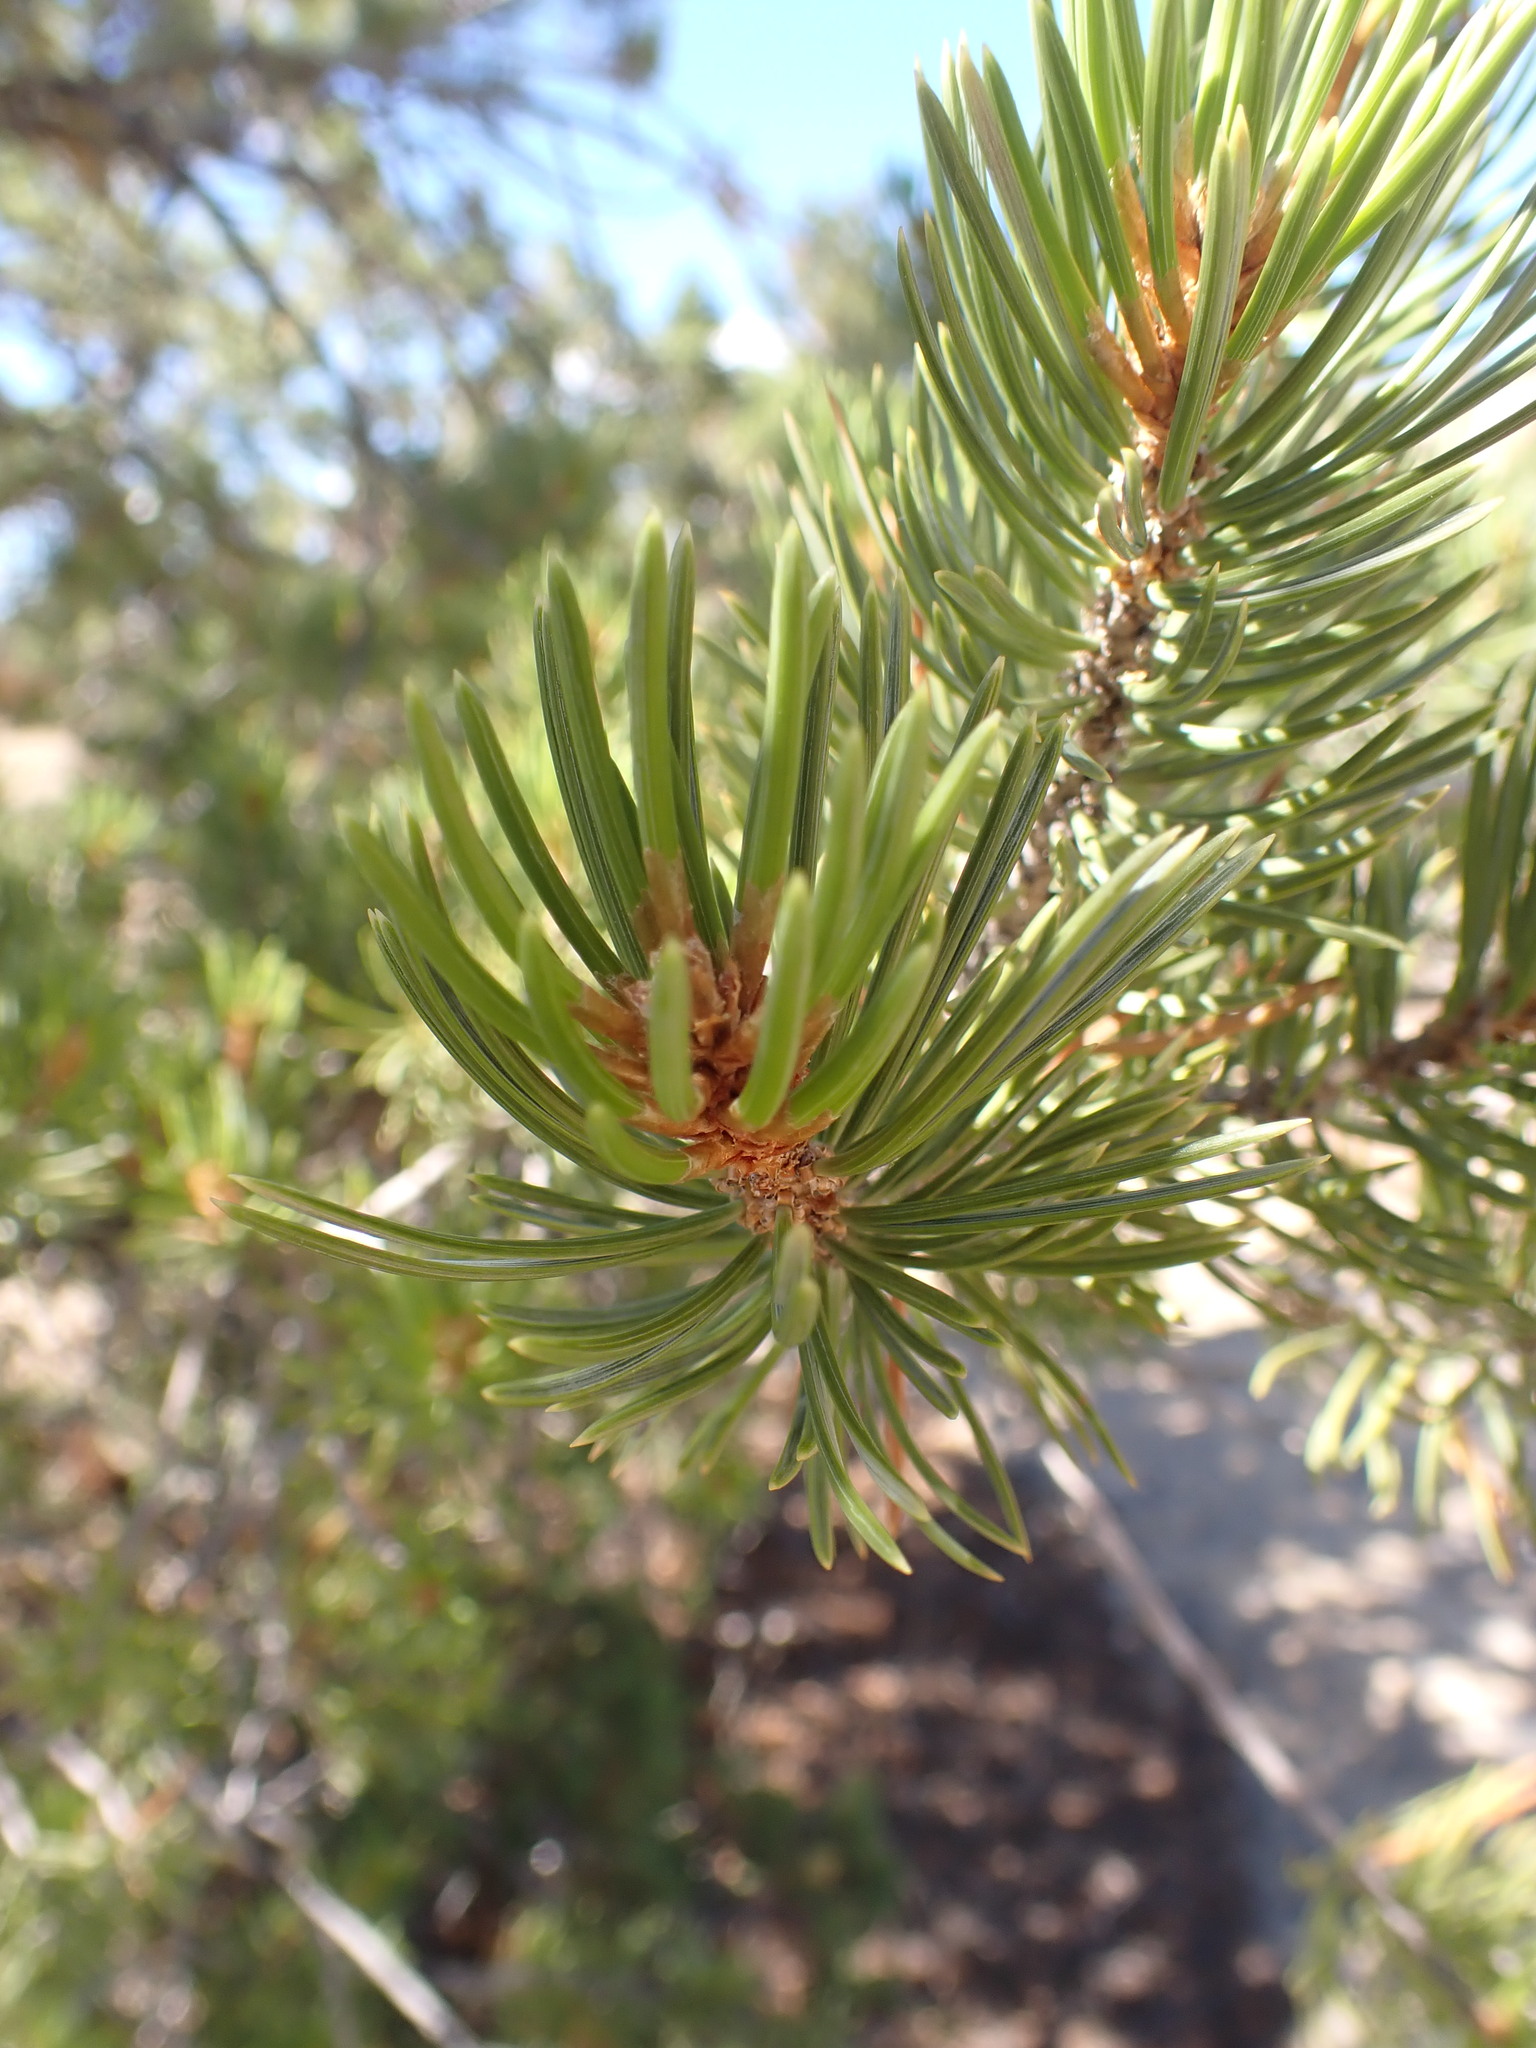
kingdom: Plantae
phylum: Tracheophyta
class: Pinopsida
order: Pinales
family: Pinaceae
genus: Pinus
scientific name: Pinus edulis
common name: Colorado pinyon
